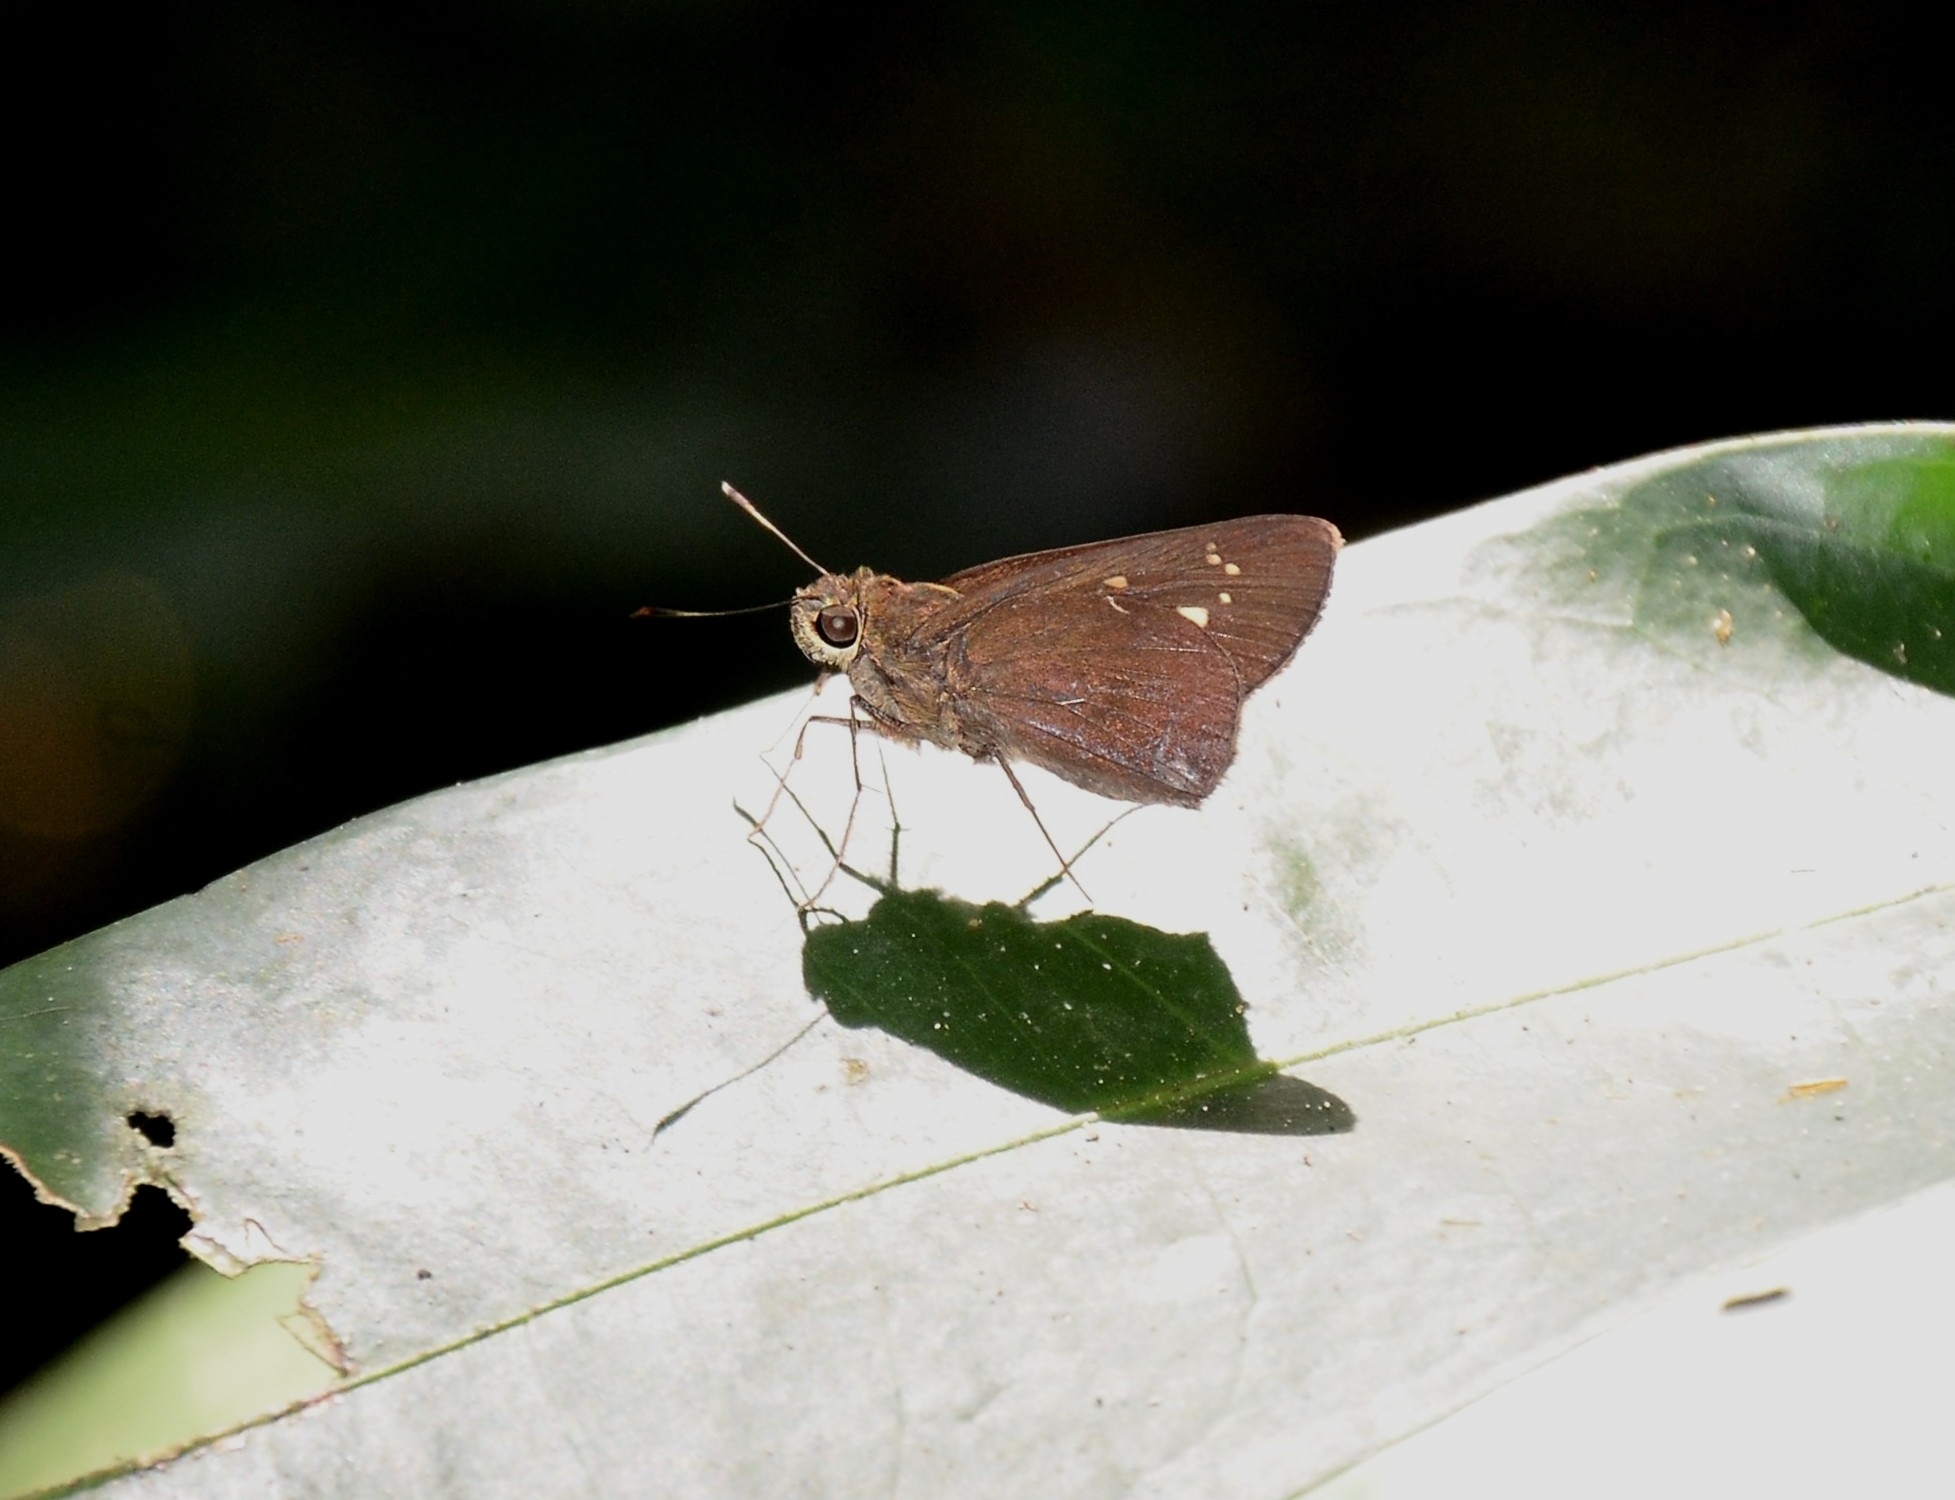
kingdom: Animalia
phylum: Arthropoda
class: Insecta
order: Lepidoptera
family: Hesperiidae
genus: Baoris
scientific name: Baoris farri
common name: Paintbrush swift
